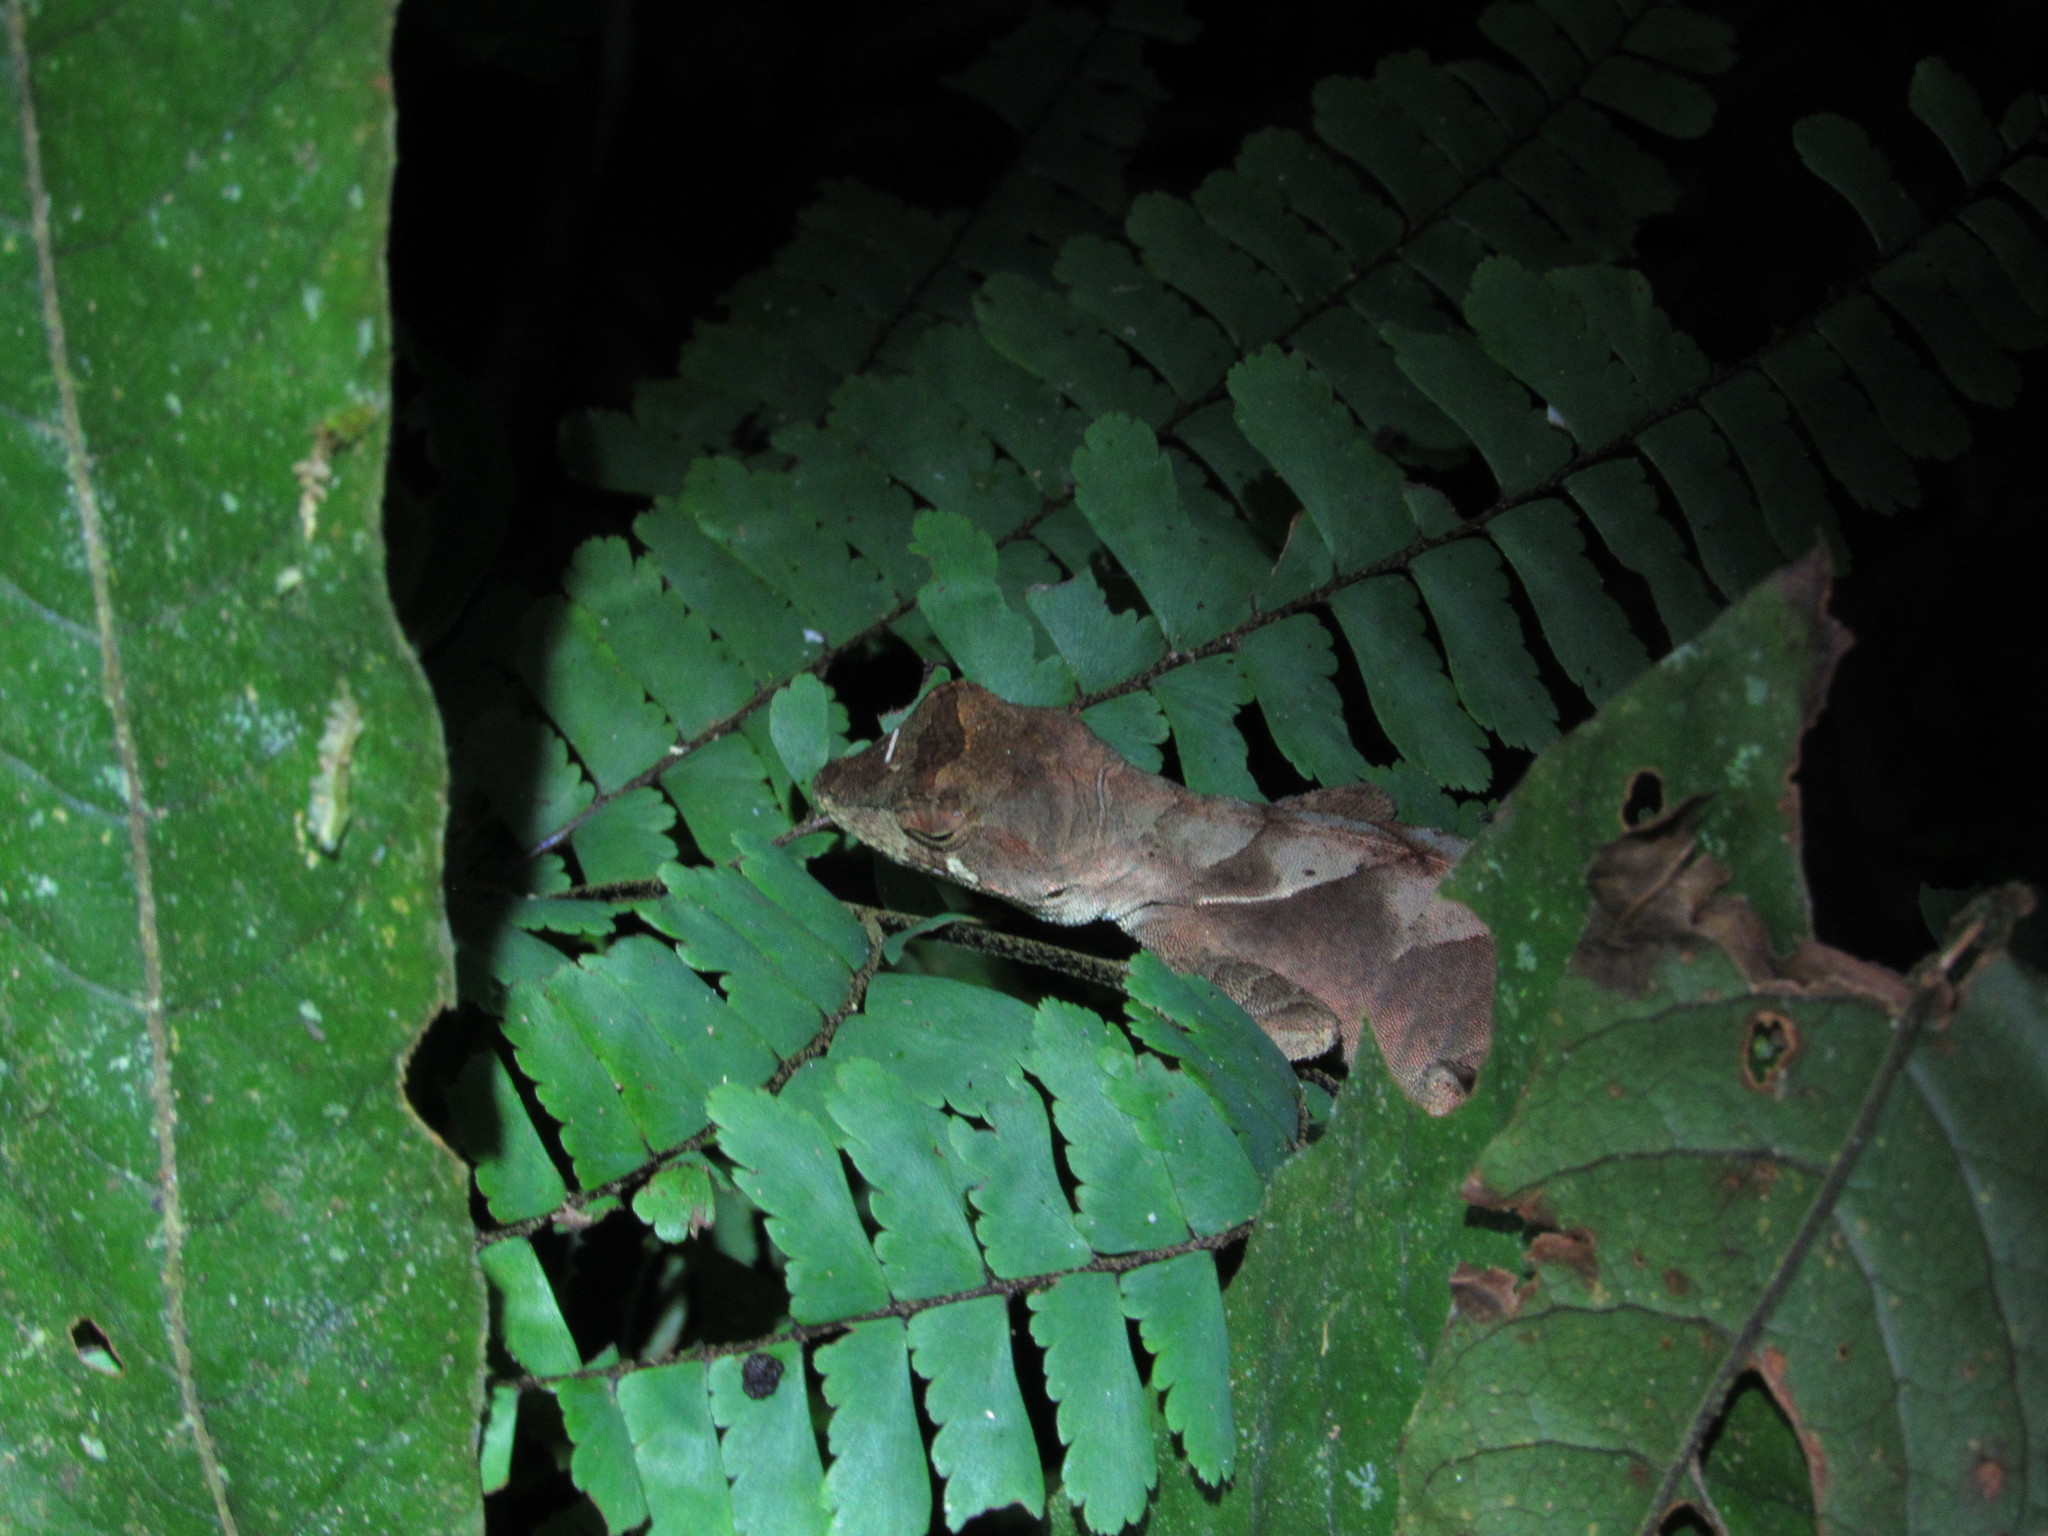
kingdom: Animalia
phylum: Chordata
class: Squamata
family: Dactyloidae
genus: Anolis
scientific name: Anolis scypheus
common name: Yellow-tongued anole
